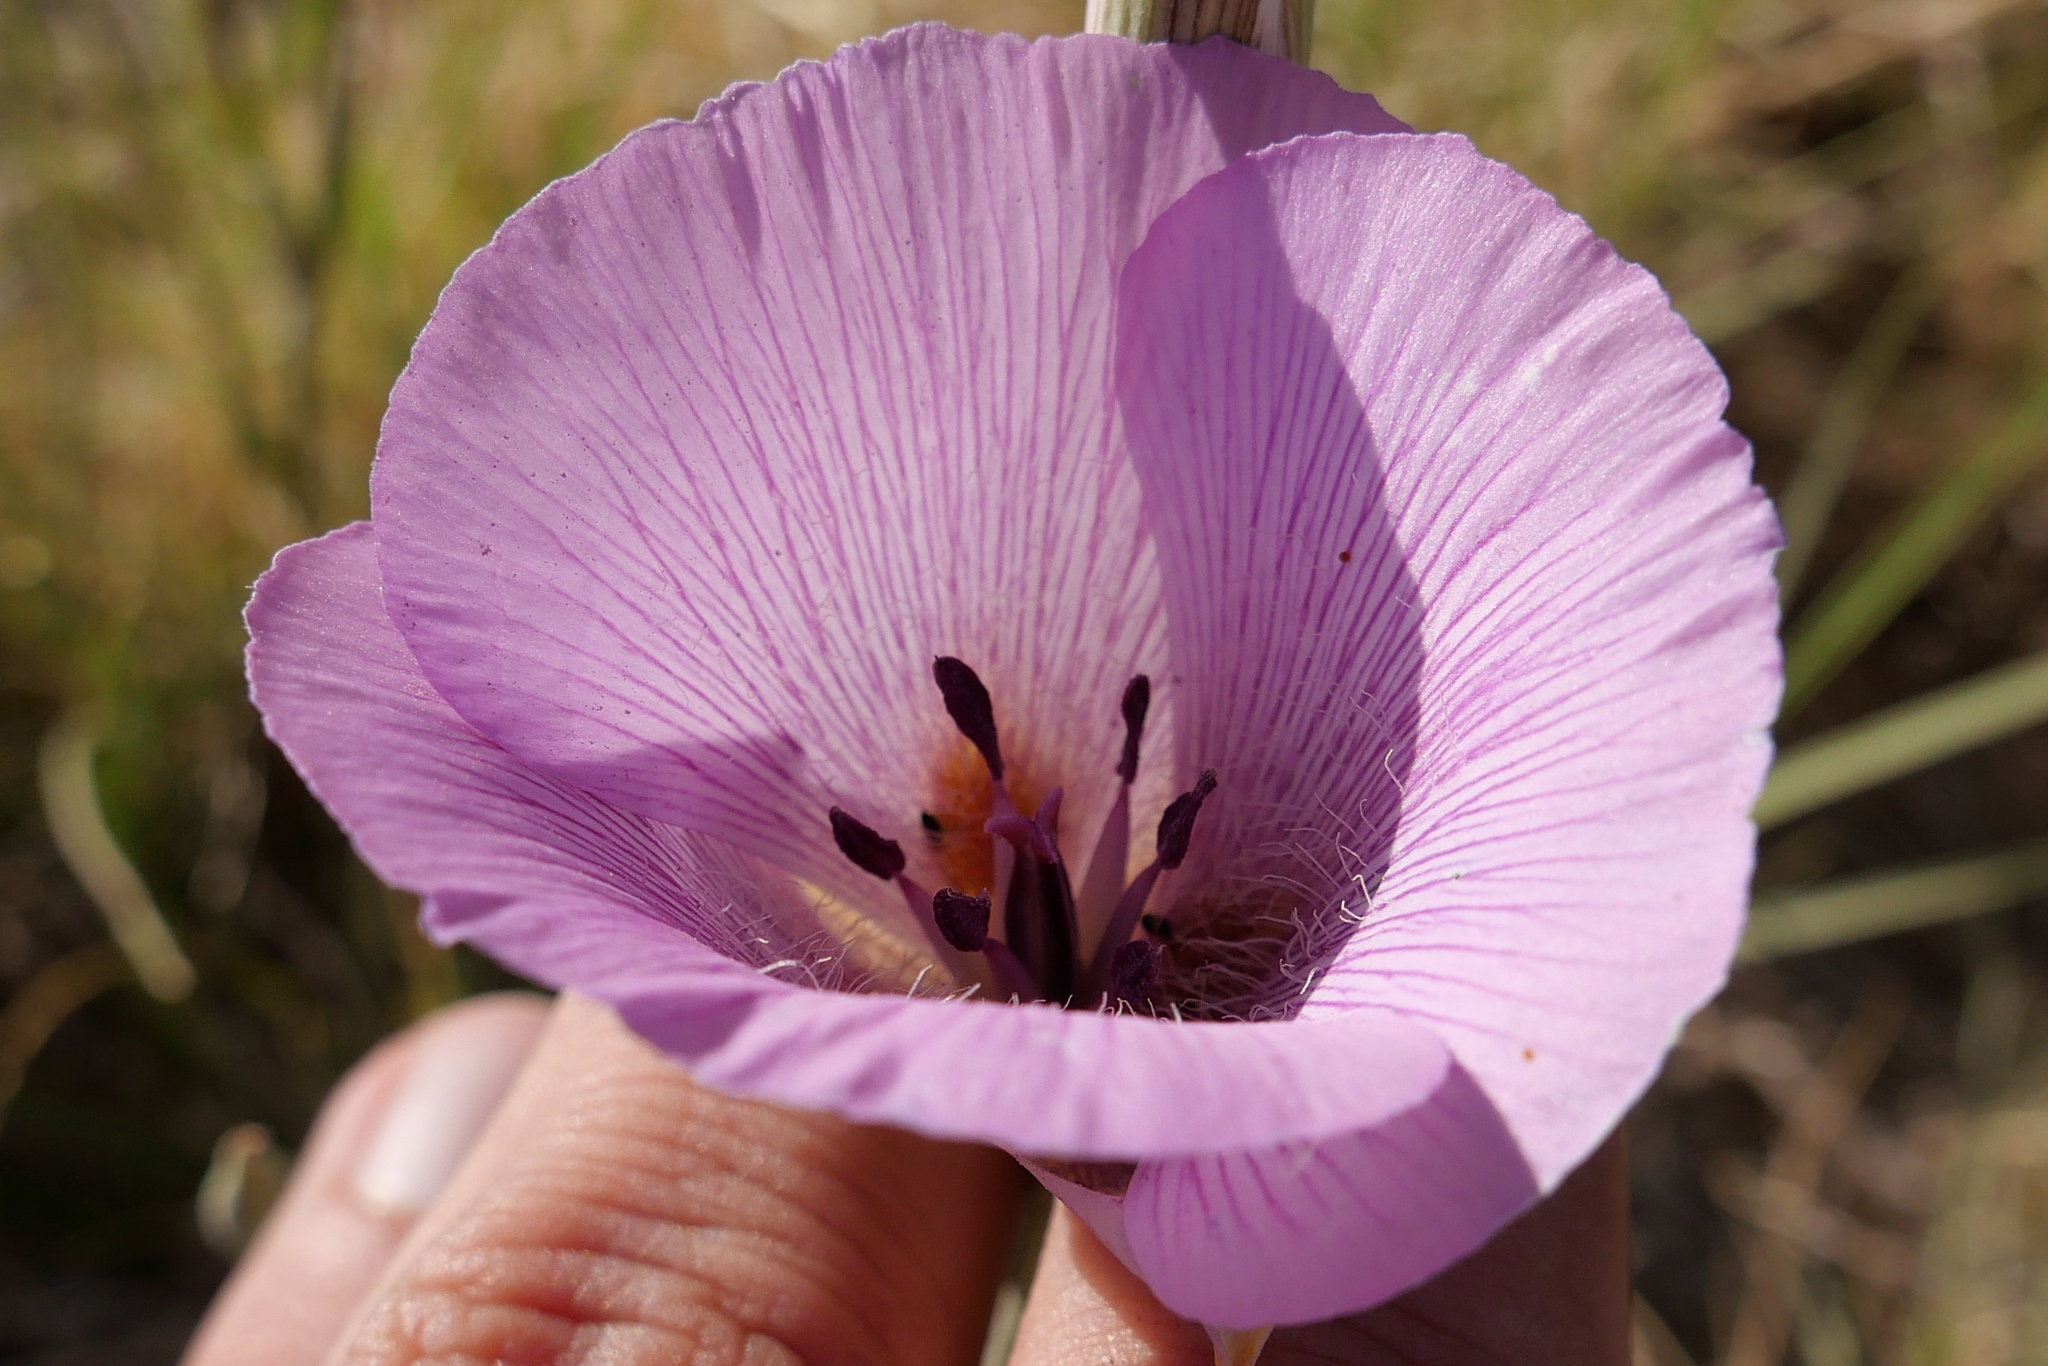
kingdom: Plantae
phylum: Tracheophyta
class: Liliopsida
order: Liliales
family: Liliaceae
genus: Calochortus
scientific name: Calochortus striatus
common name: Alkali mariposa-lily
